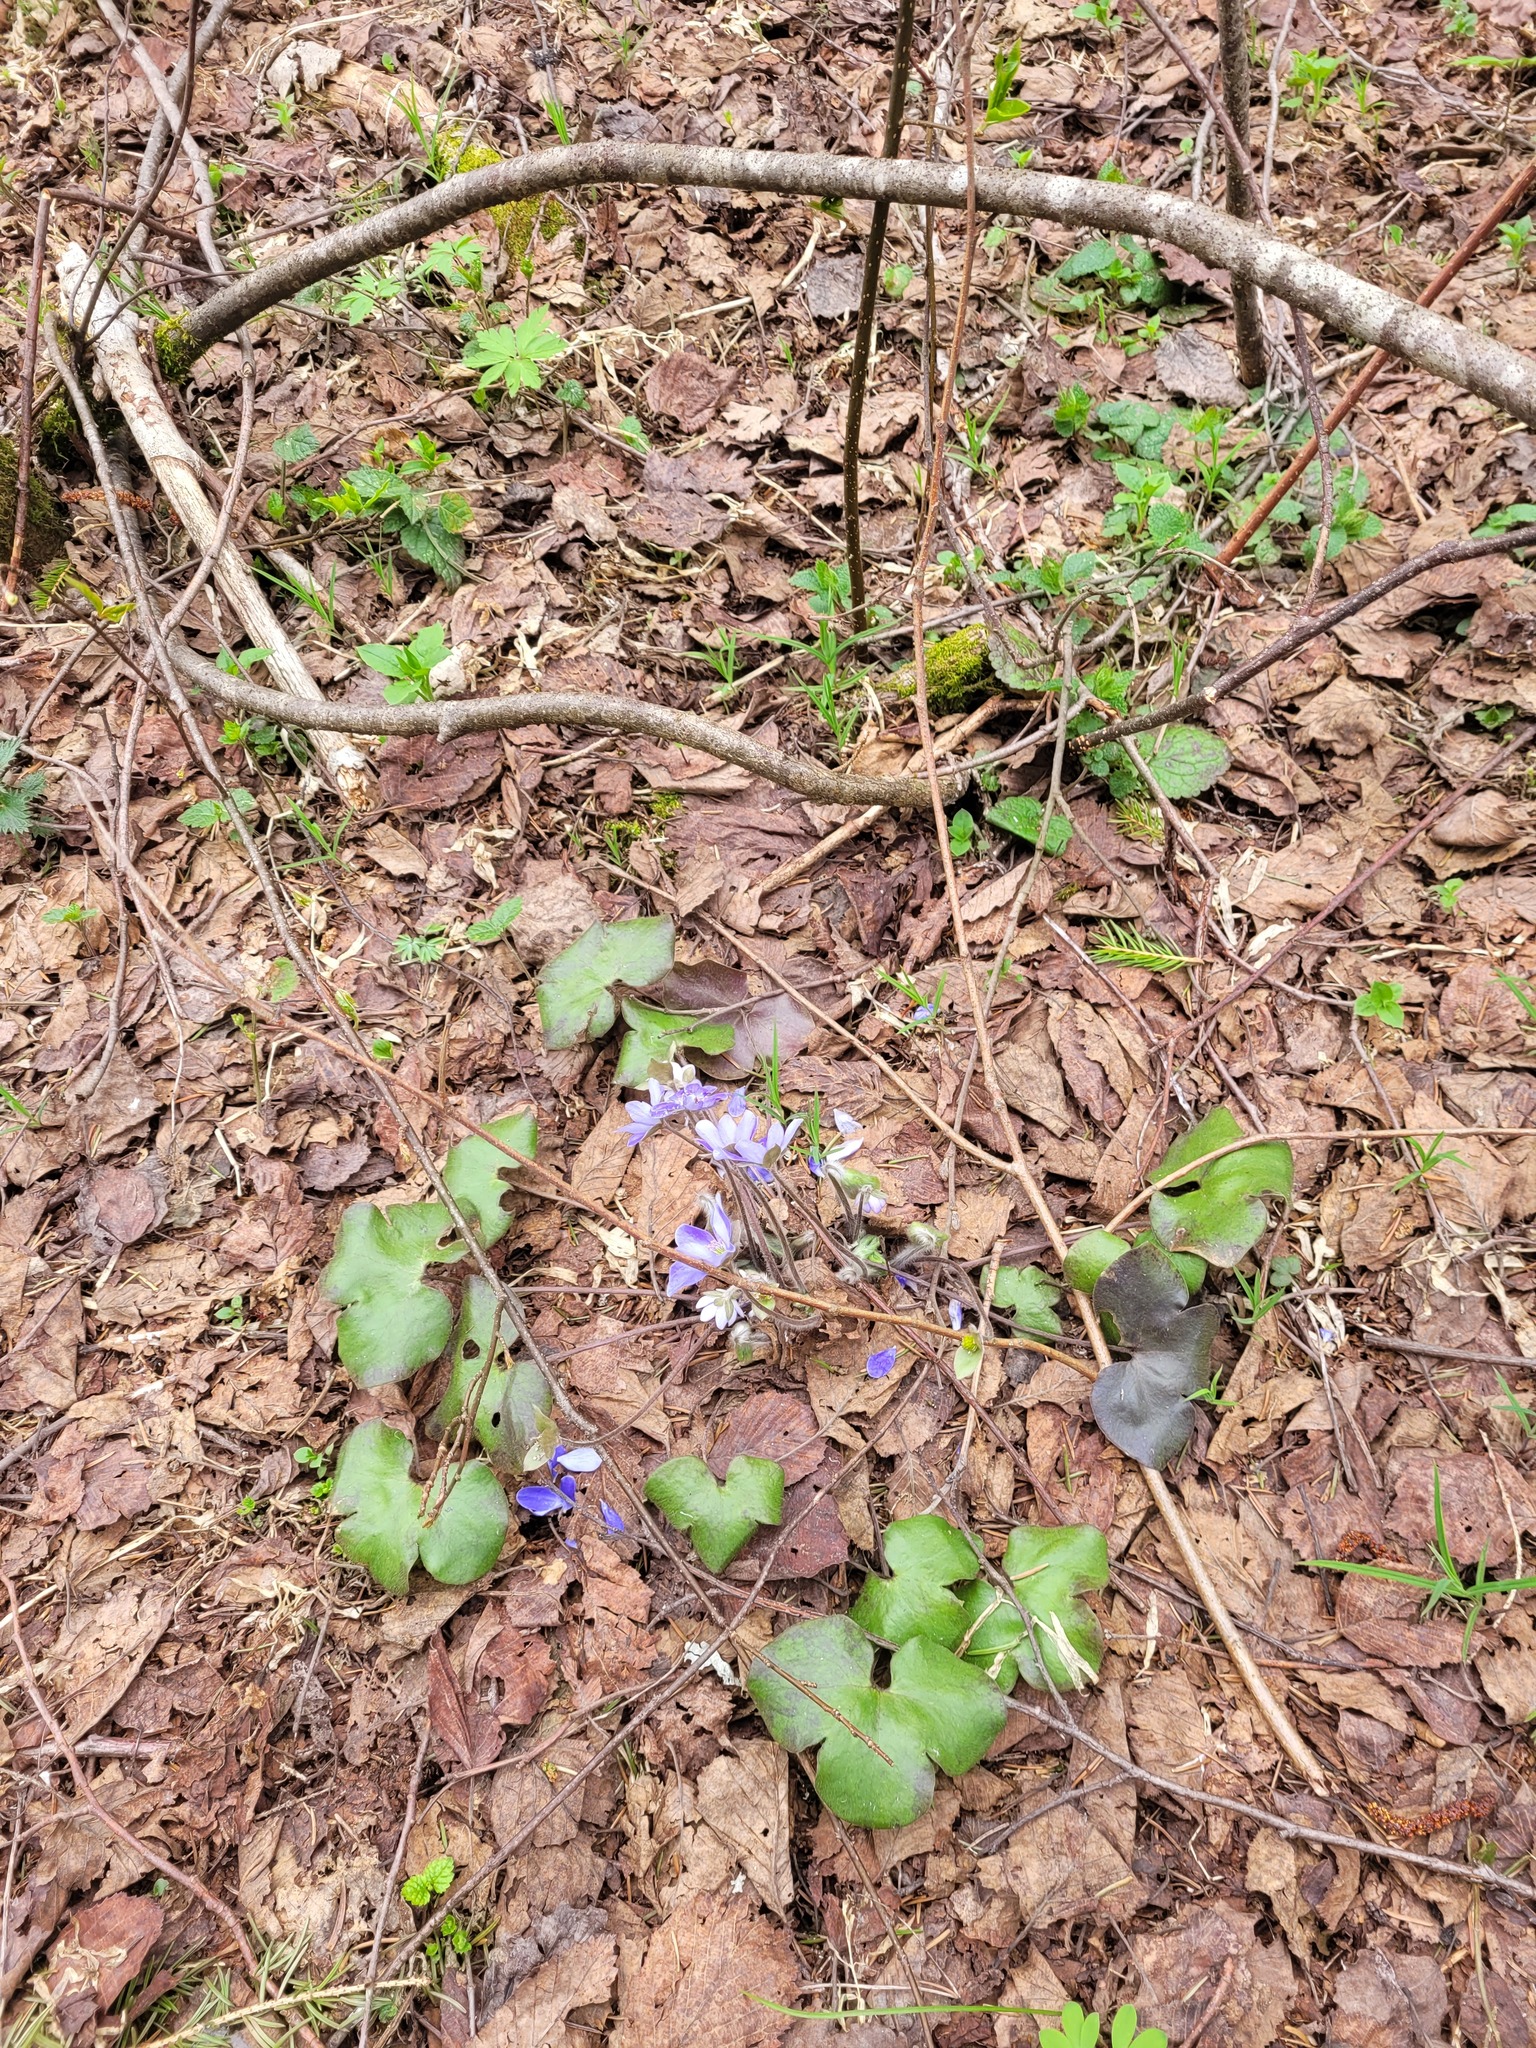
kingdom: Plantae
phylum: Tracheophyta
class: Magnoliopsida
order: Ranunculales
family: Ranunculaceae
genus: Hepatica
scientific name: Hepatica nobilis
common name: Liverleaf
